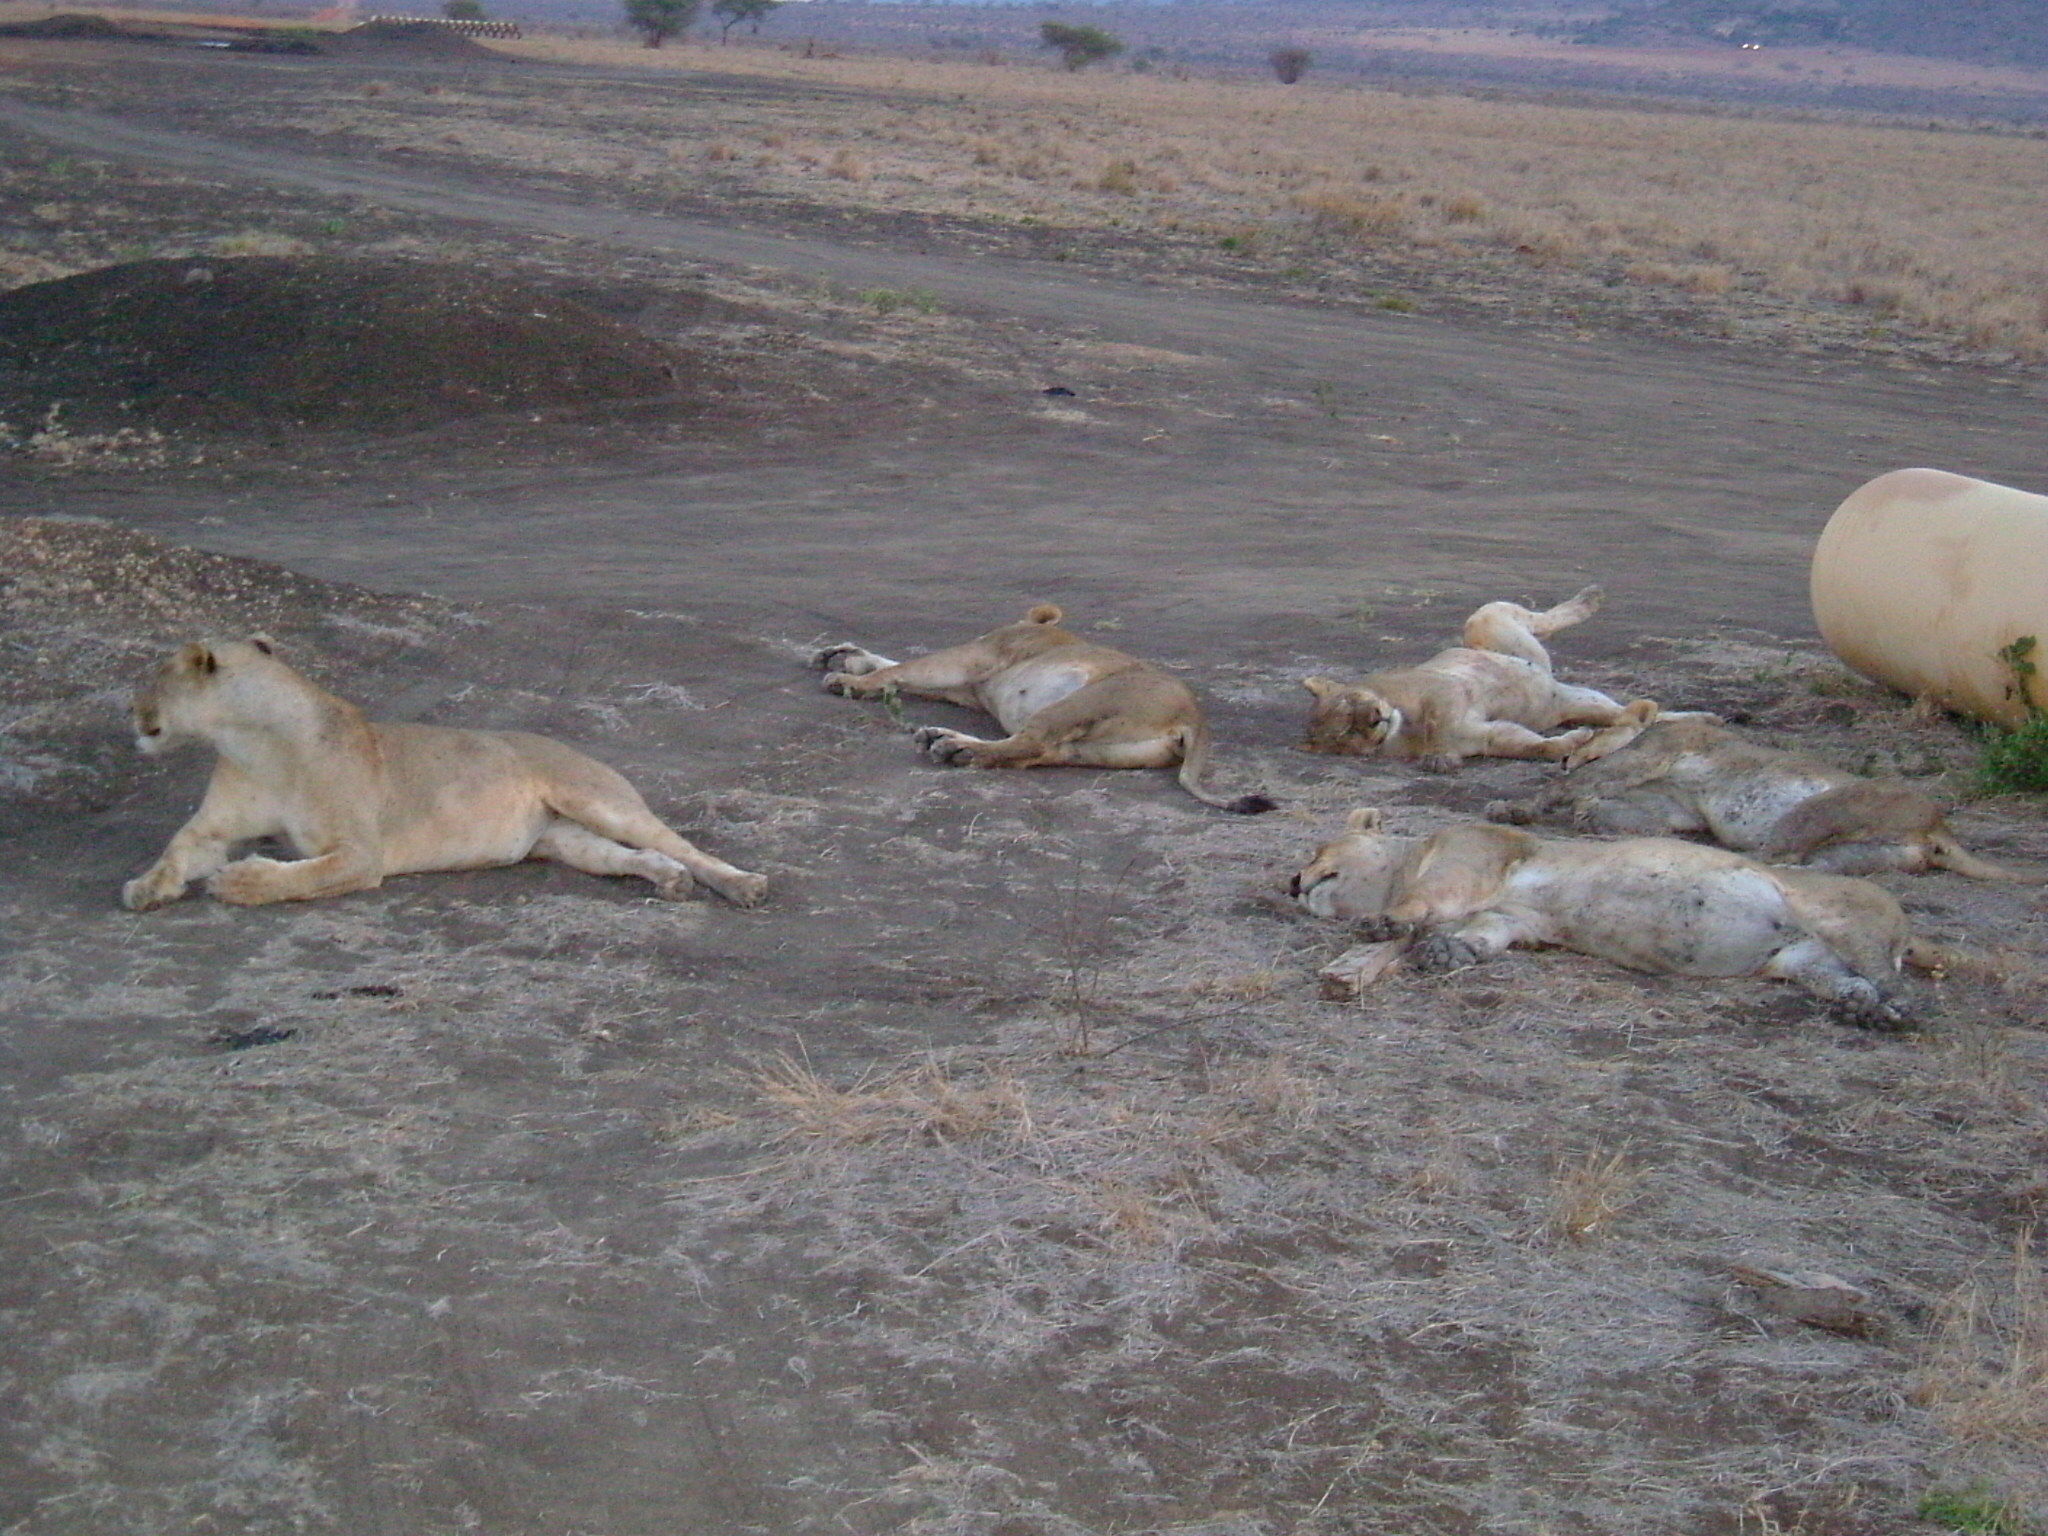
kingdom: Animalia
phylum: Chordata
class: Mammalia
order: Carnivora
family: Felidae
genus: Panthera
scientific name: Panthera leo
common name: Lion
